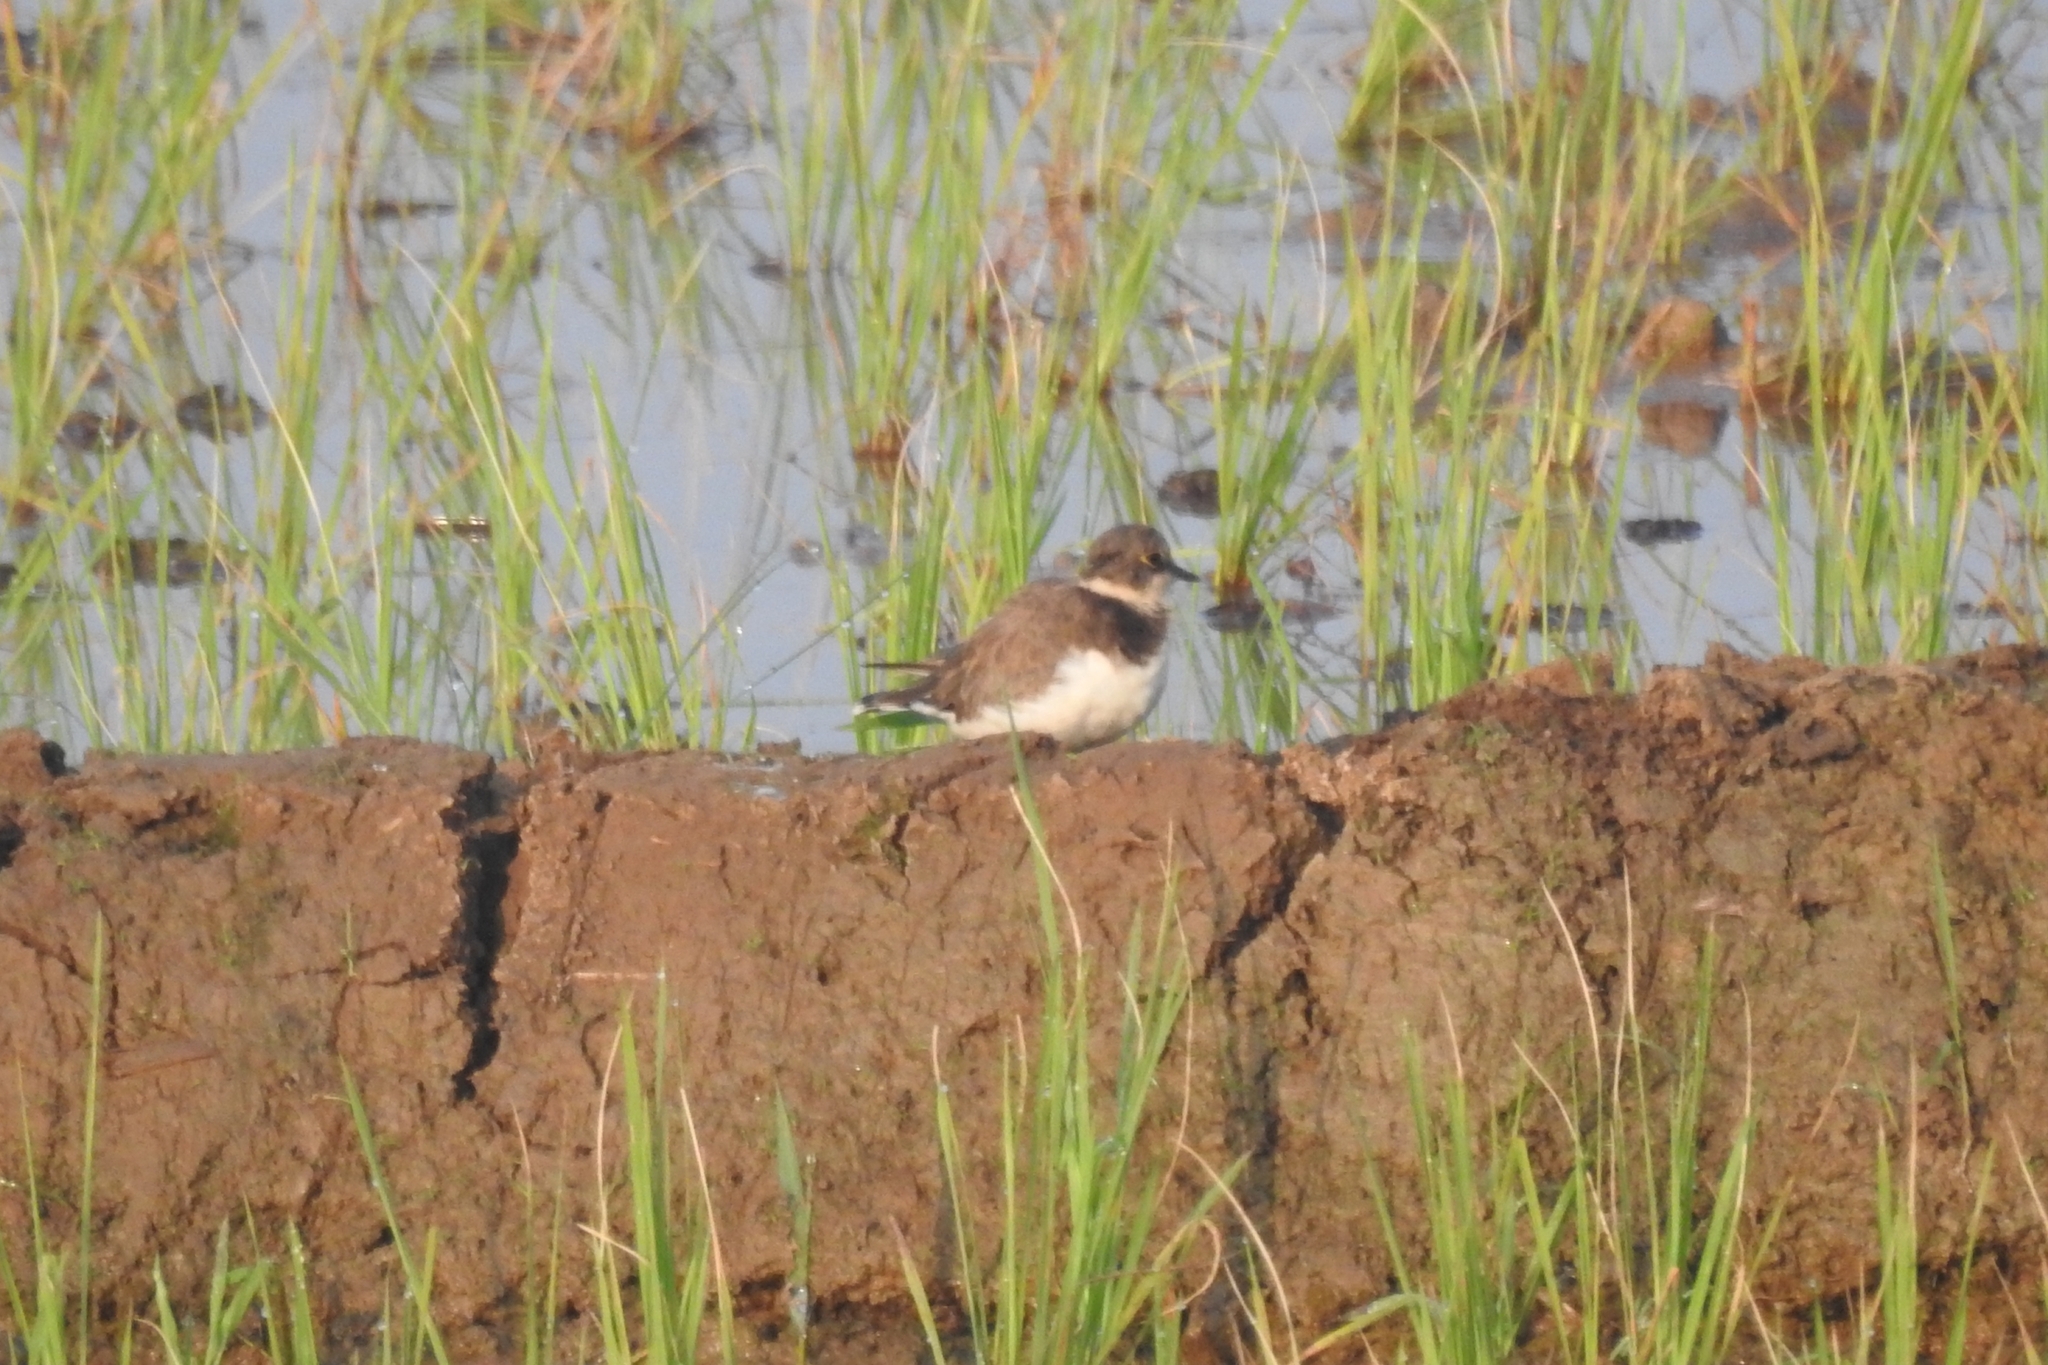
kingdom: Animalia
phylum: Chordata
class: Aves
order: Charadriiformes
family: Charadriidae
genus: Charadrius
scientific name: Charadrius dubius
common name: Little ringed plover
